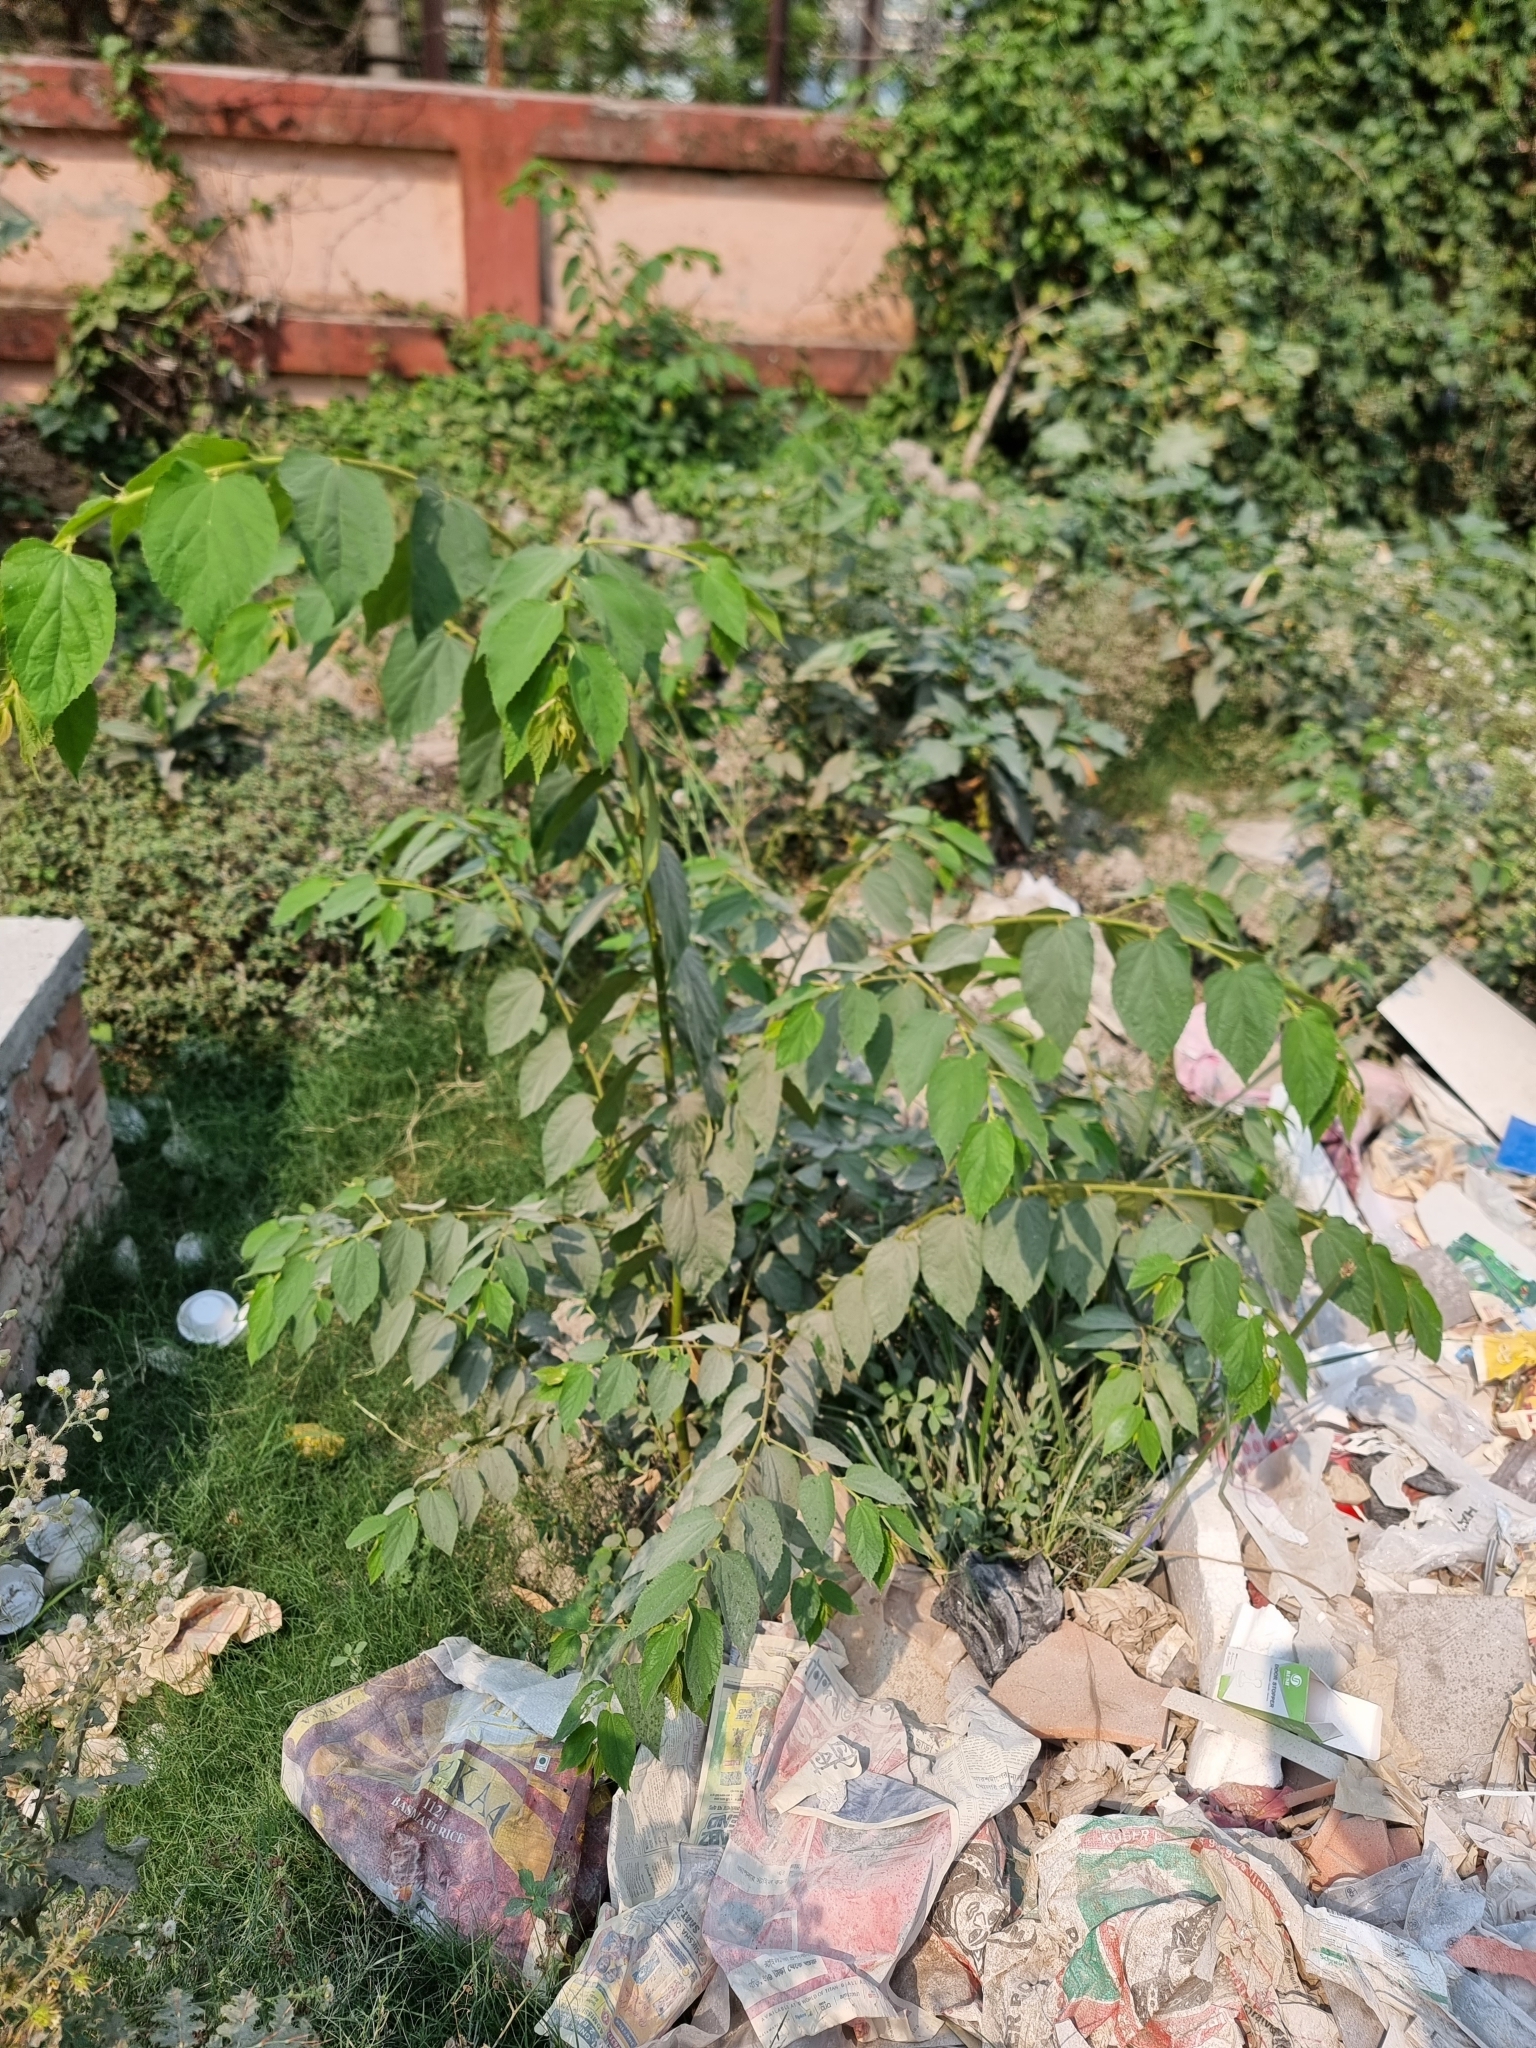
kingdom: Plantae
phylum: Tracheophyta
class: Magnoliopsida
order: Malvales
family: Muntingiaceae
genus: Muntingia
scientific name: Muntingia calabura
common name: Strawberrytree
